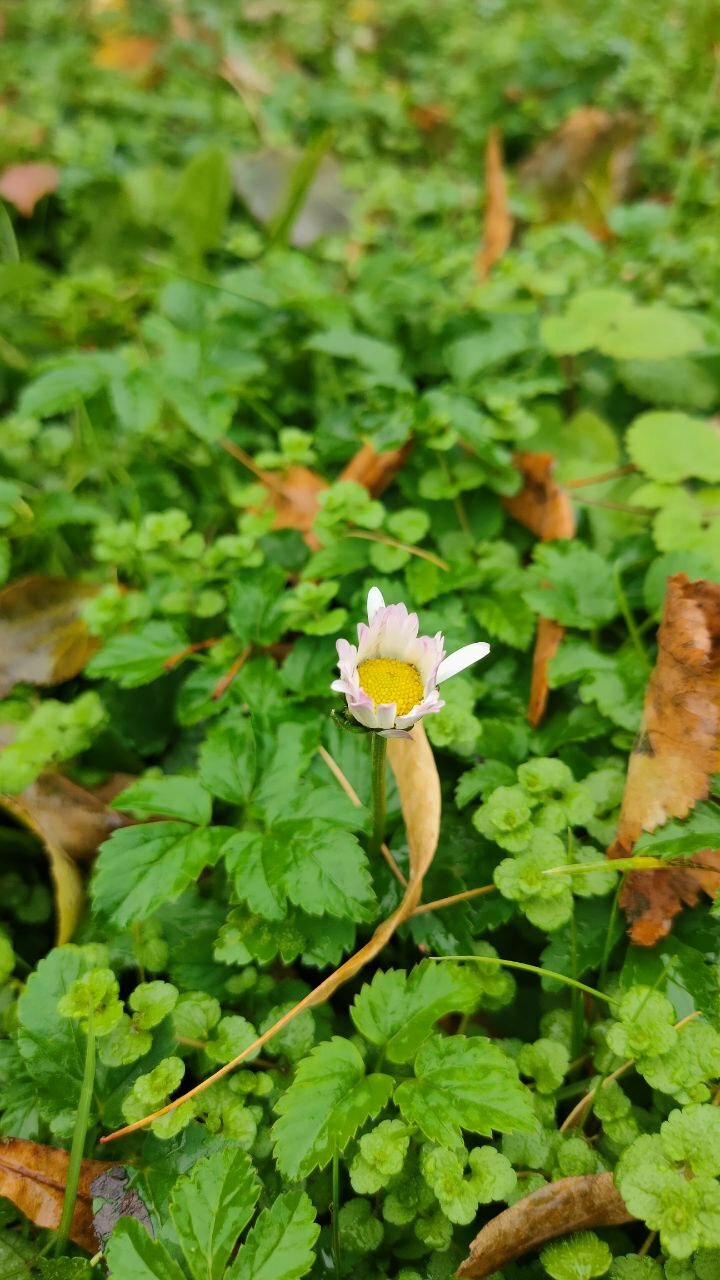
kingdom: Plantae
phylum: Tracheophyta
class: Magnoliopsida
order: Asterales
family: Asteraceae
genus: Bellis
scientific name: Bellis perennis
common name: Lawndaisy
